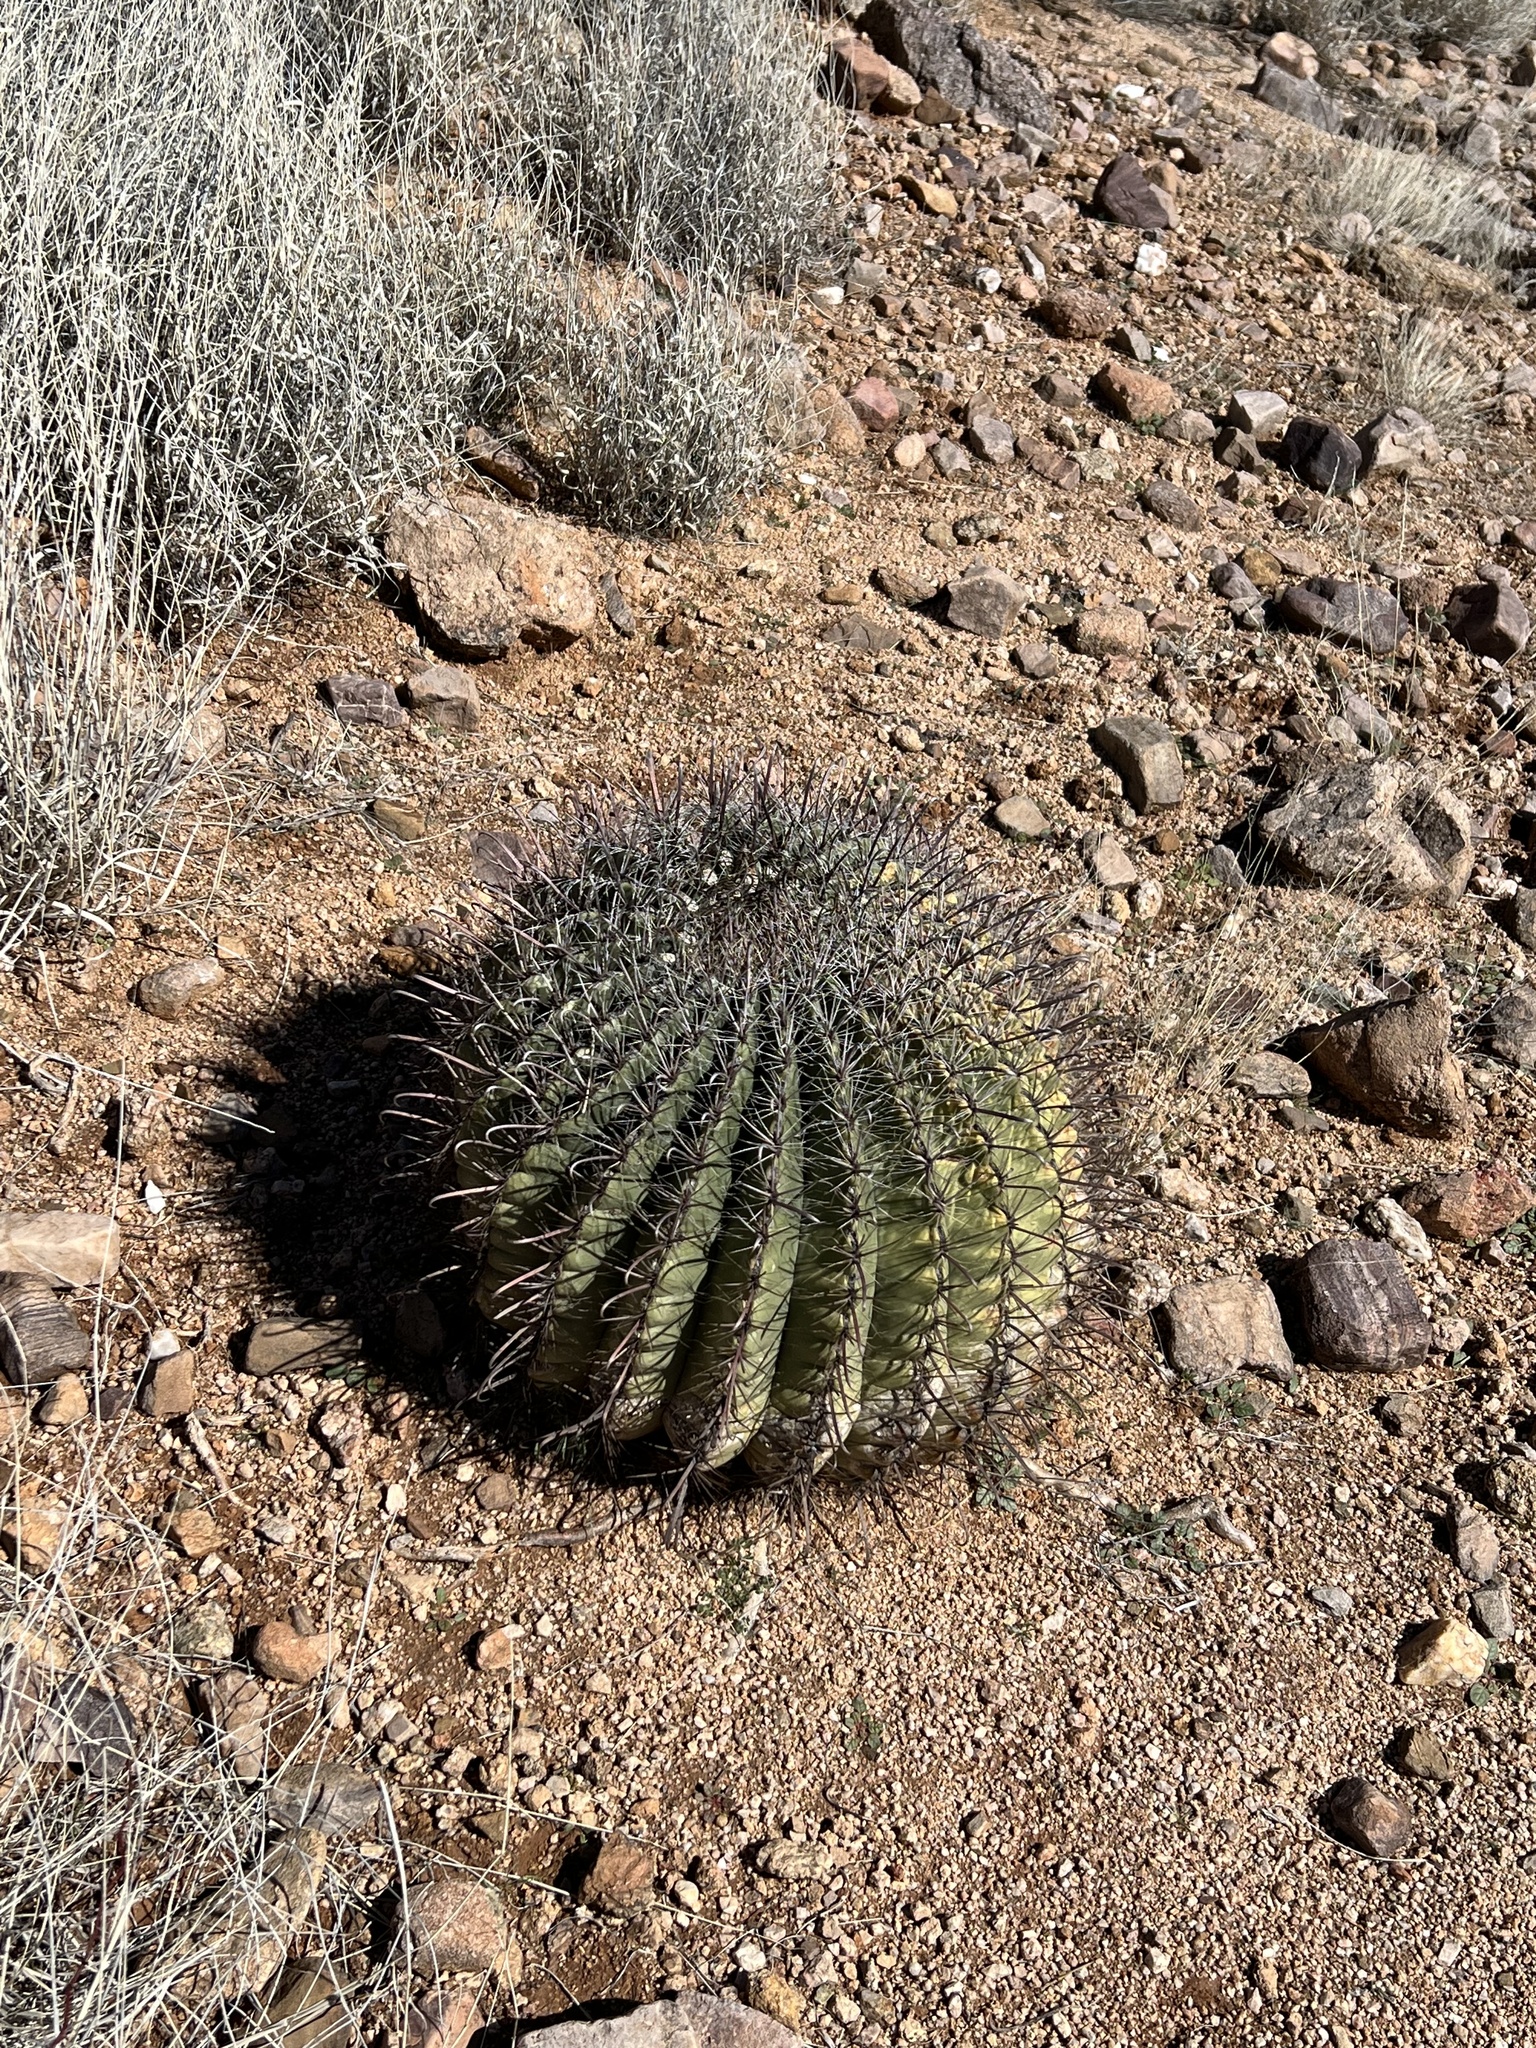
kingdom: Plantae
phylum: Tracheophyta
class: Magnoliopsida
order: Caryophyllales
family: Cactaceae
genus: Ferocactus
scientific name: Ferocactus wislizeni
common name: Candy barrel cactus
